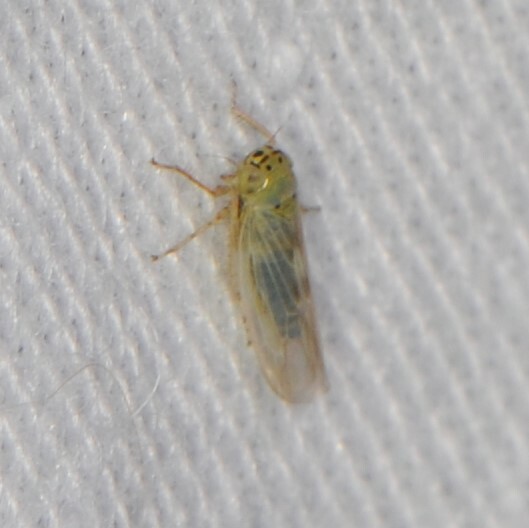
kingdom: Animalia
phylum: Arthropoda
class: Insecta
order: Hemiptera
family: Cicadellidae
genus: Macrosteles
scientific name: Macrosteles
